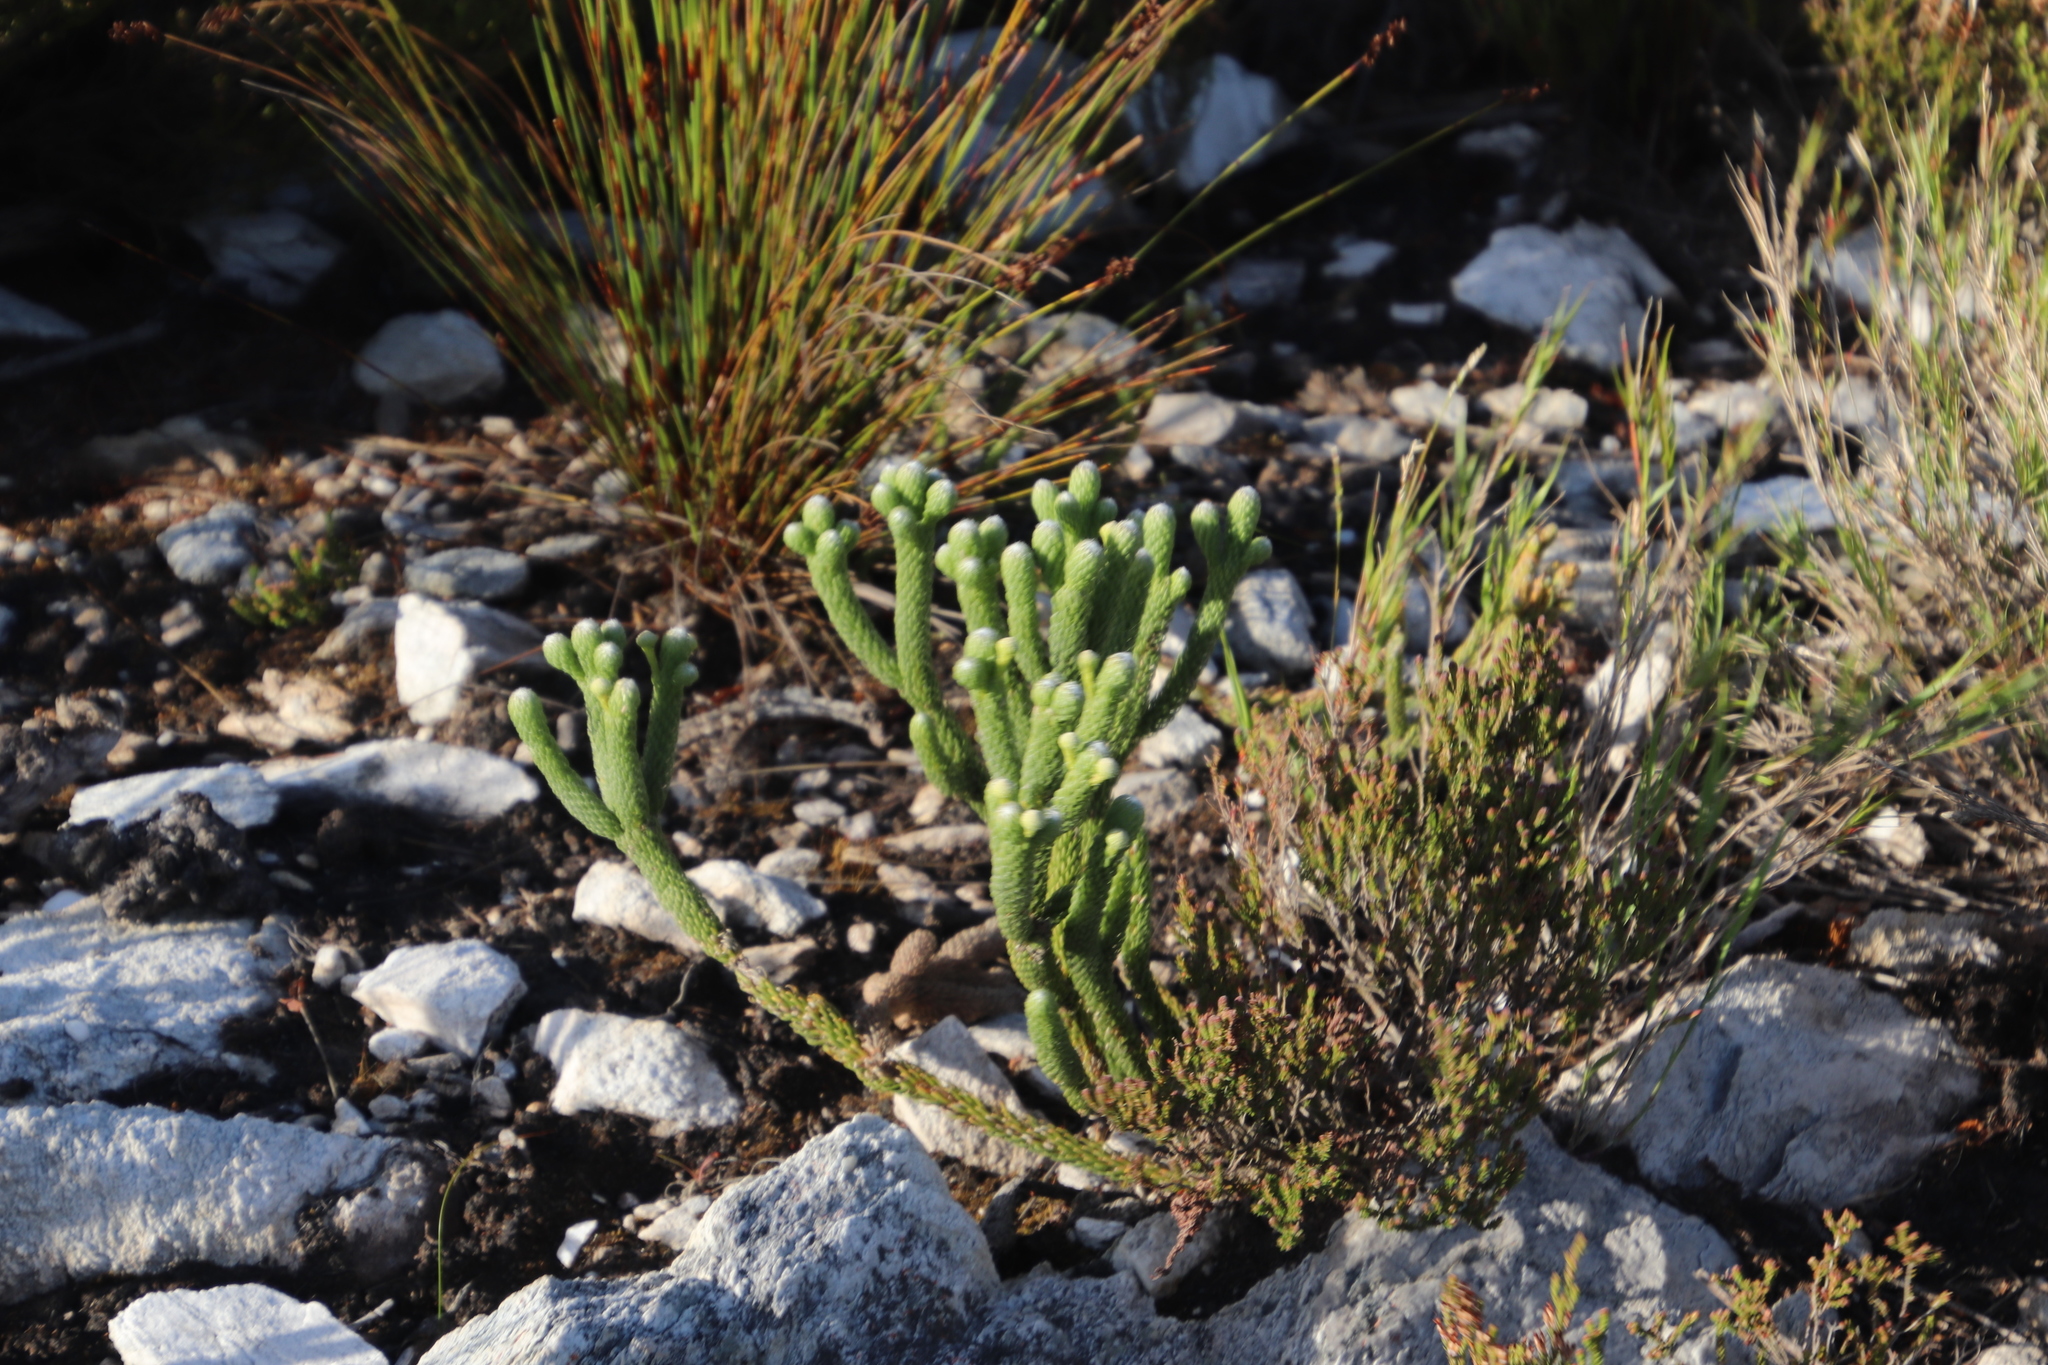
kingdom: Plantae
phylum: Tracheophyta
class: Magnoliopsida
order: Bruniales
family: Bruniaceae
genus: Berzelia
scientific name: Berzelia incurva
